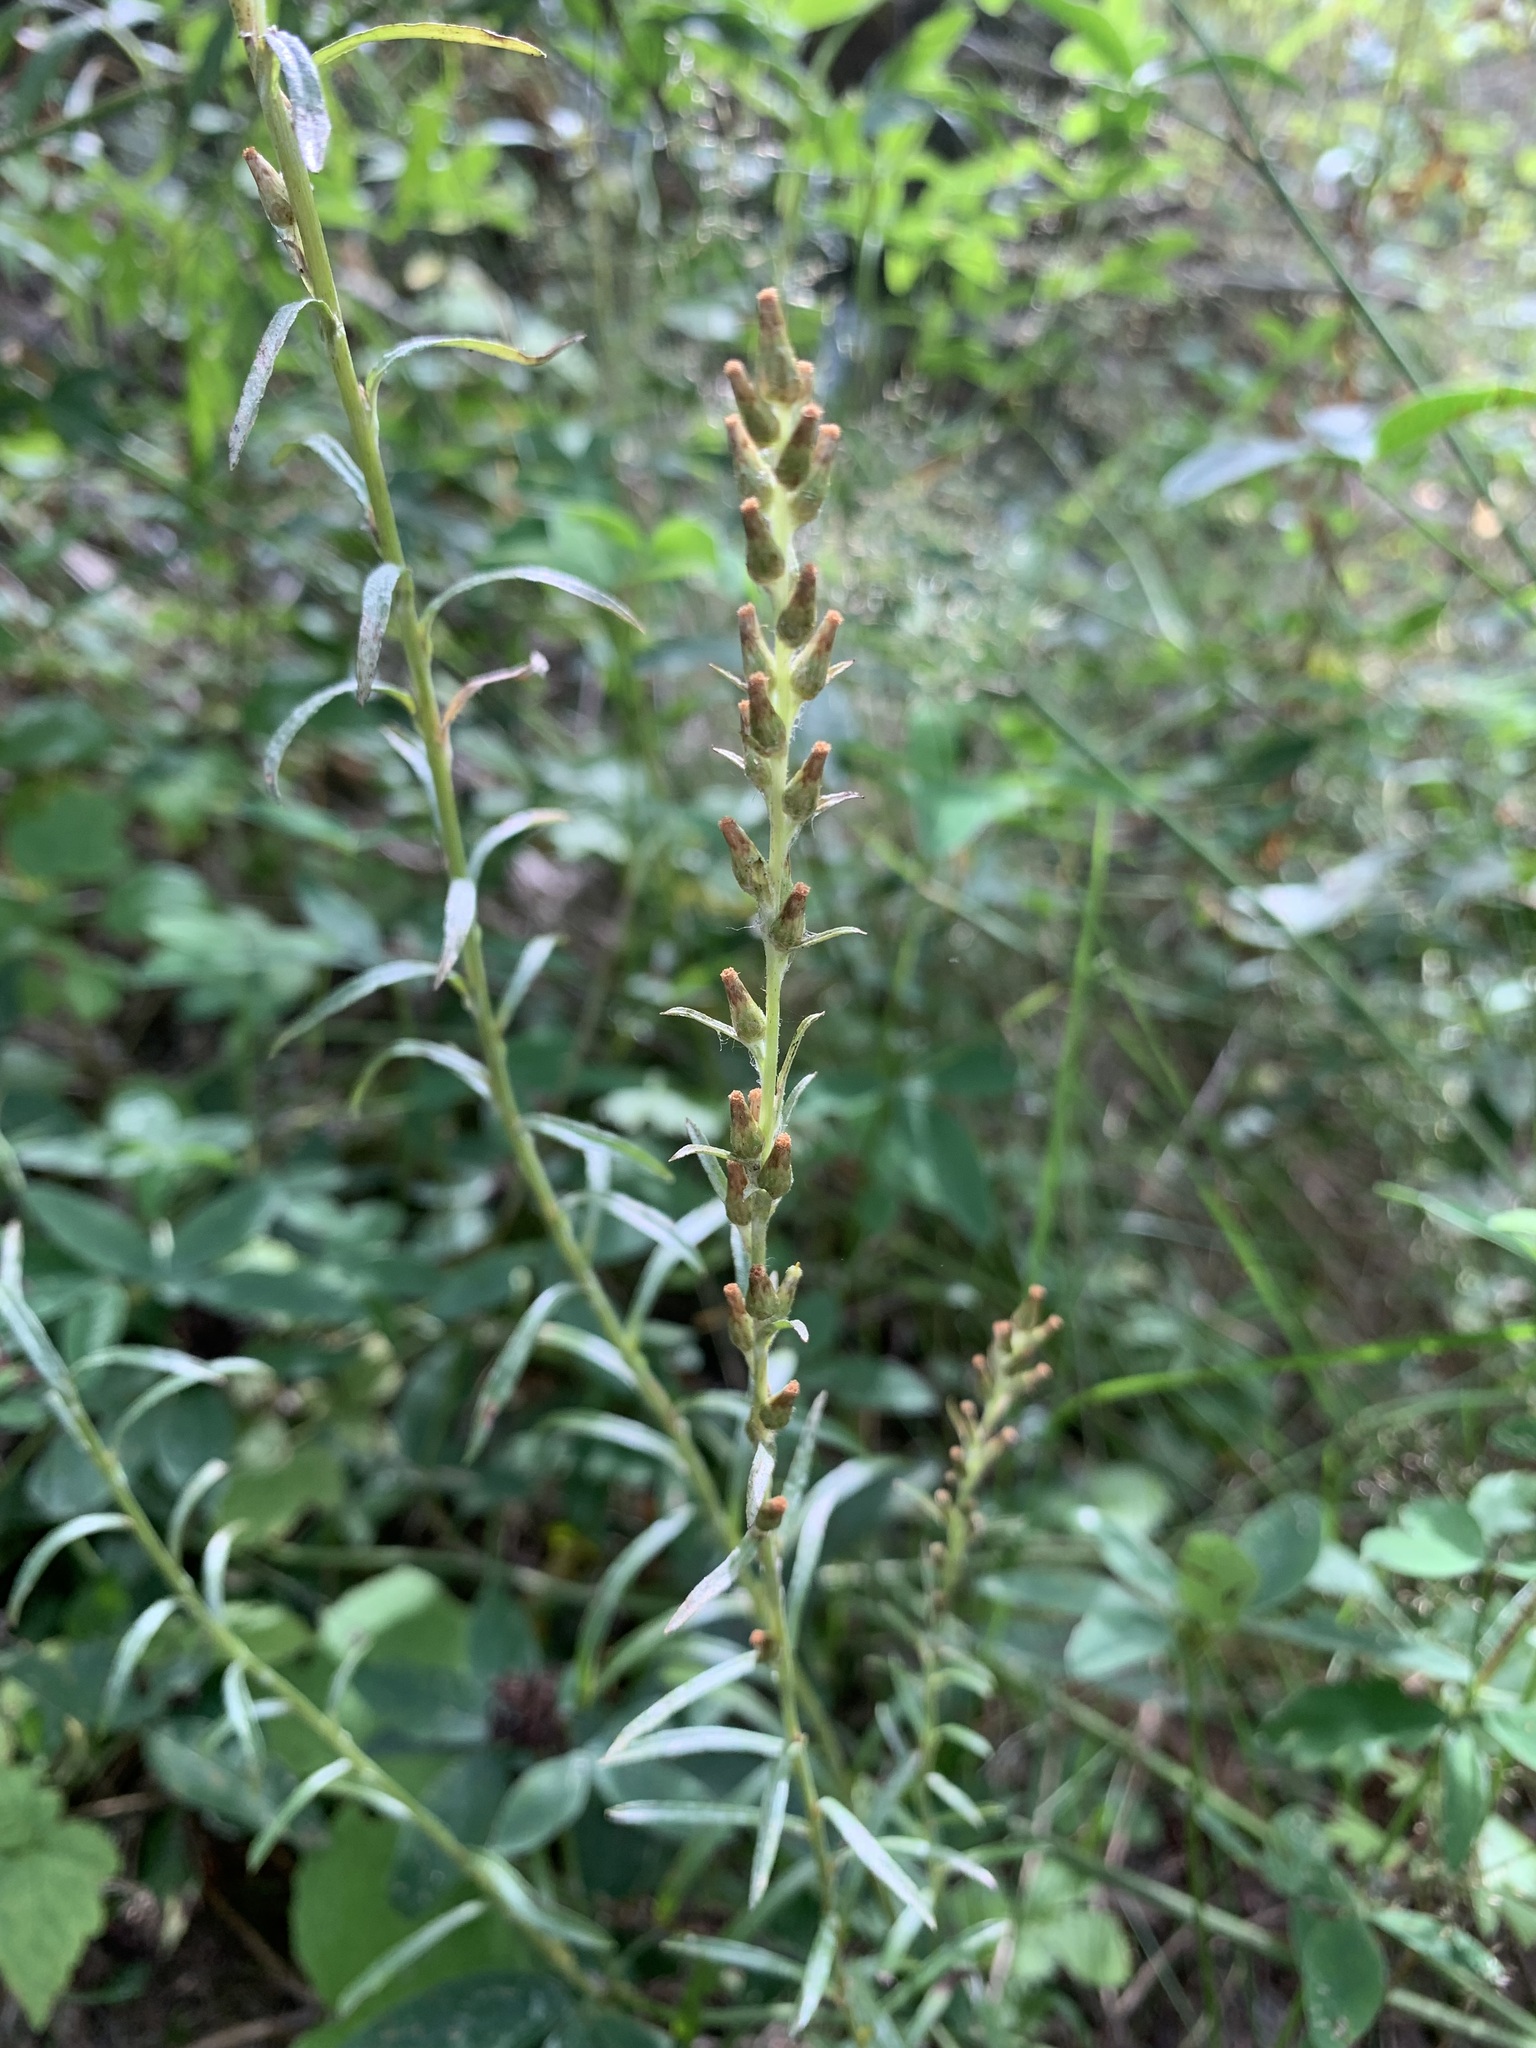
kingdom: Plantae
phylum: Tracheophyta
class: Magnoliopsida
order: Asterales
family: Asteraceae
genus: Omalotheca
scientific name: Omalotheca sylvatica
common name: Heath cudweed
